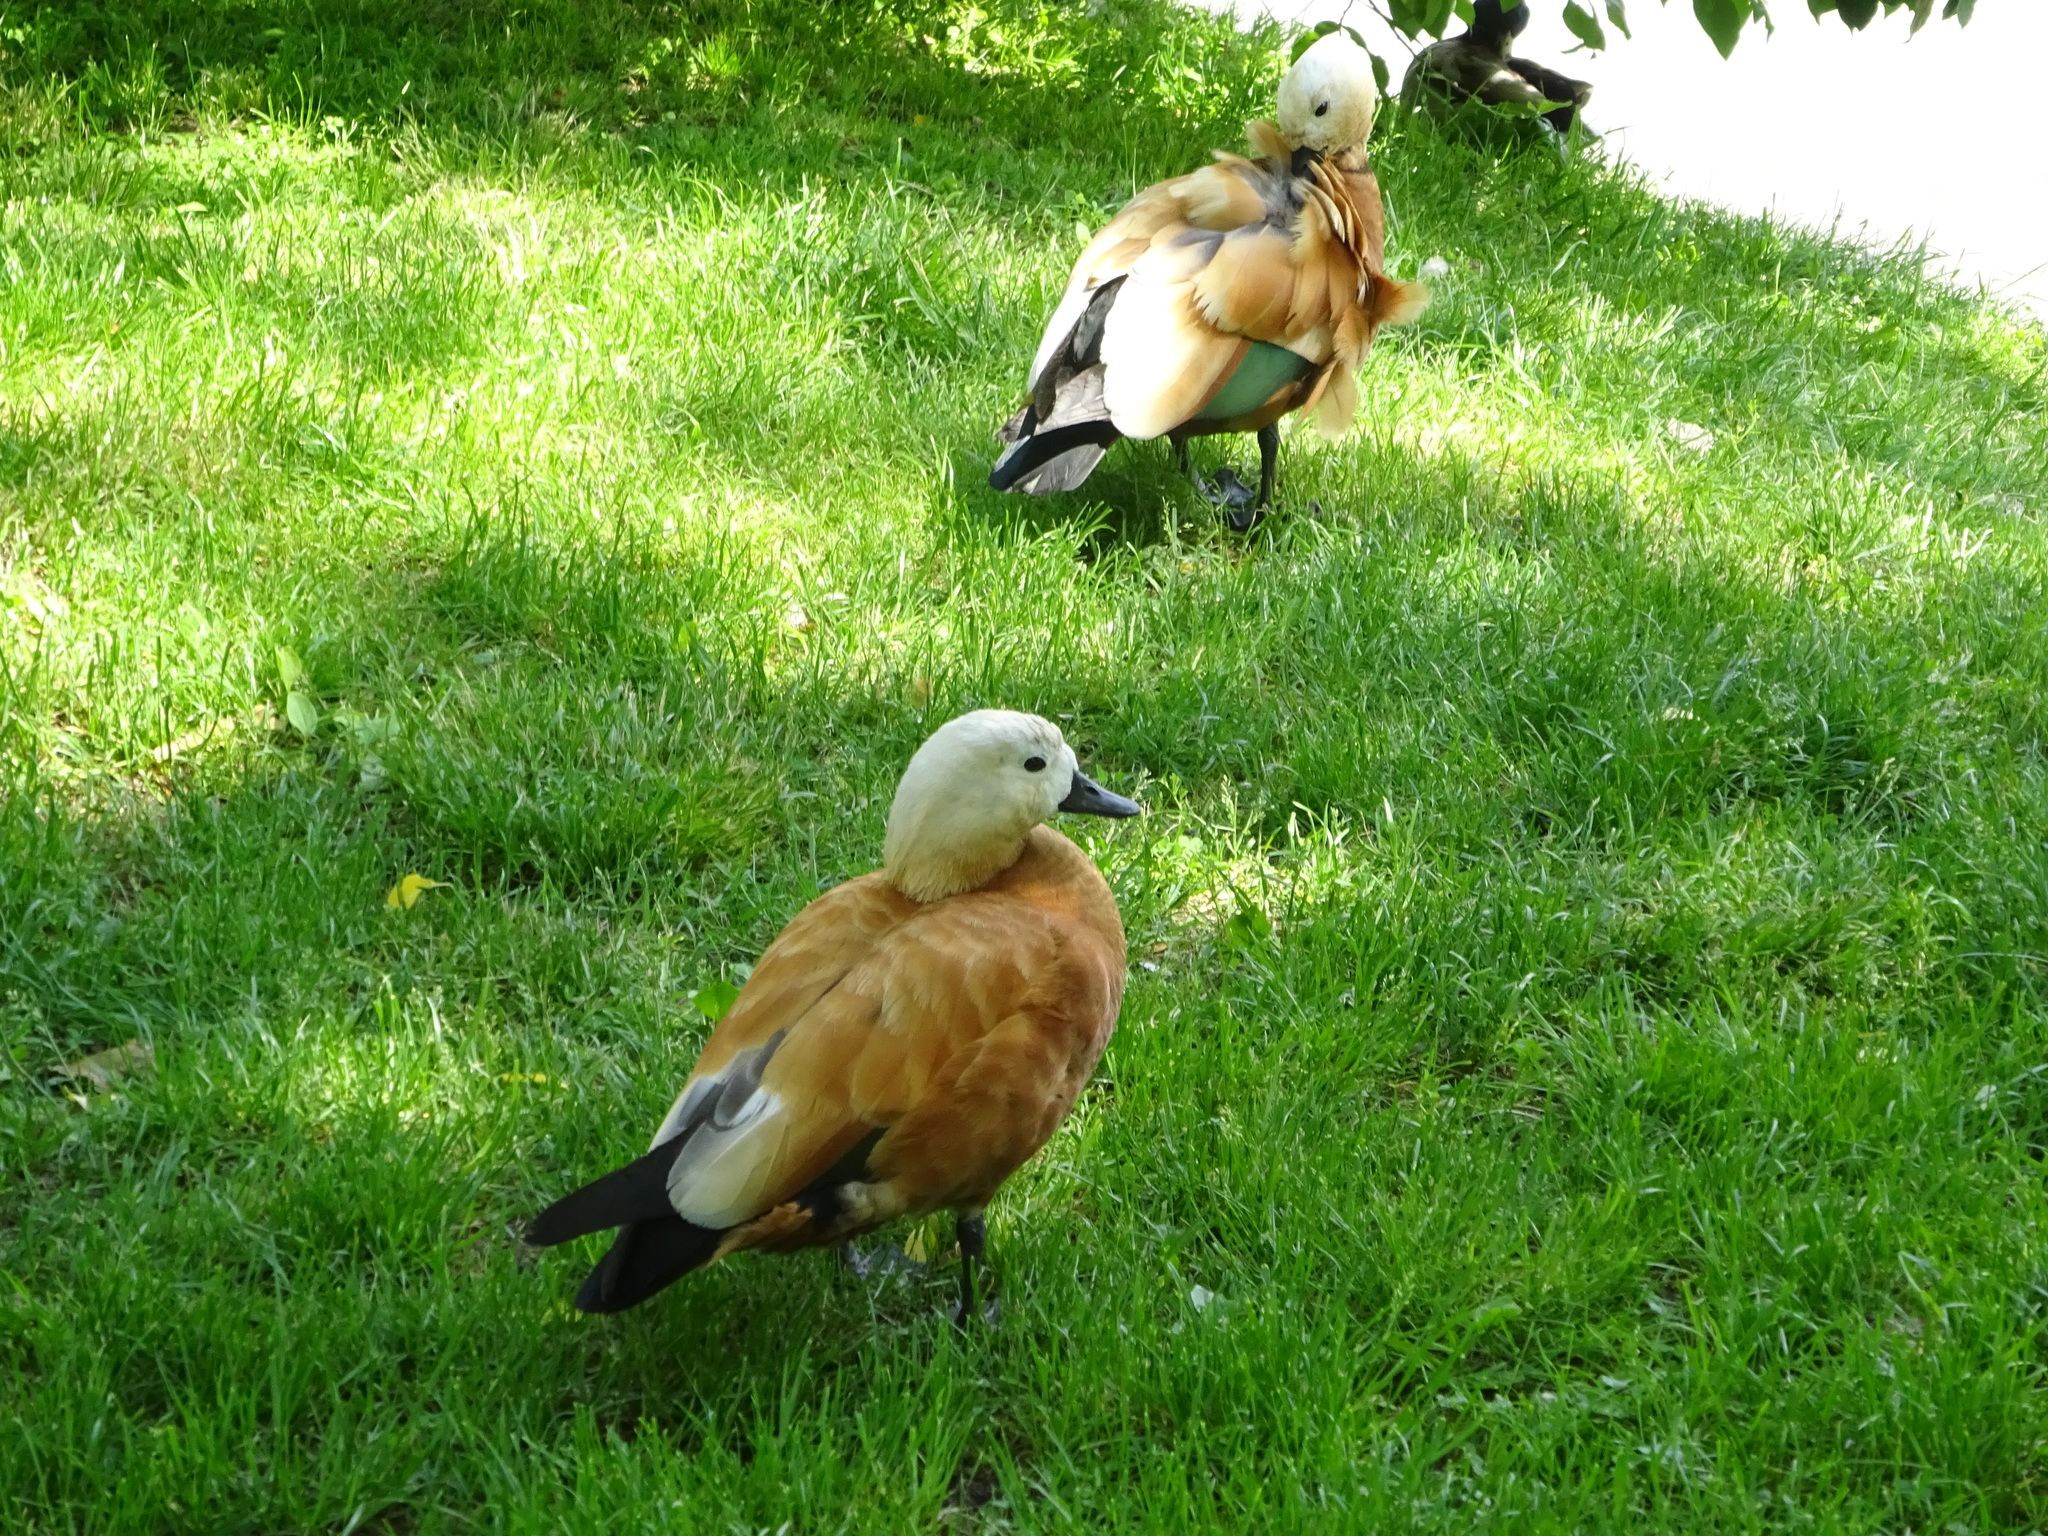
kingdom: Animalia
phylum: Chordata
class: Aves
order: Anseriformes
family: Anatidae
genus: Tadorna
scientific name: Tadorna ferruginea
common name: Ruddy shelduck
